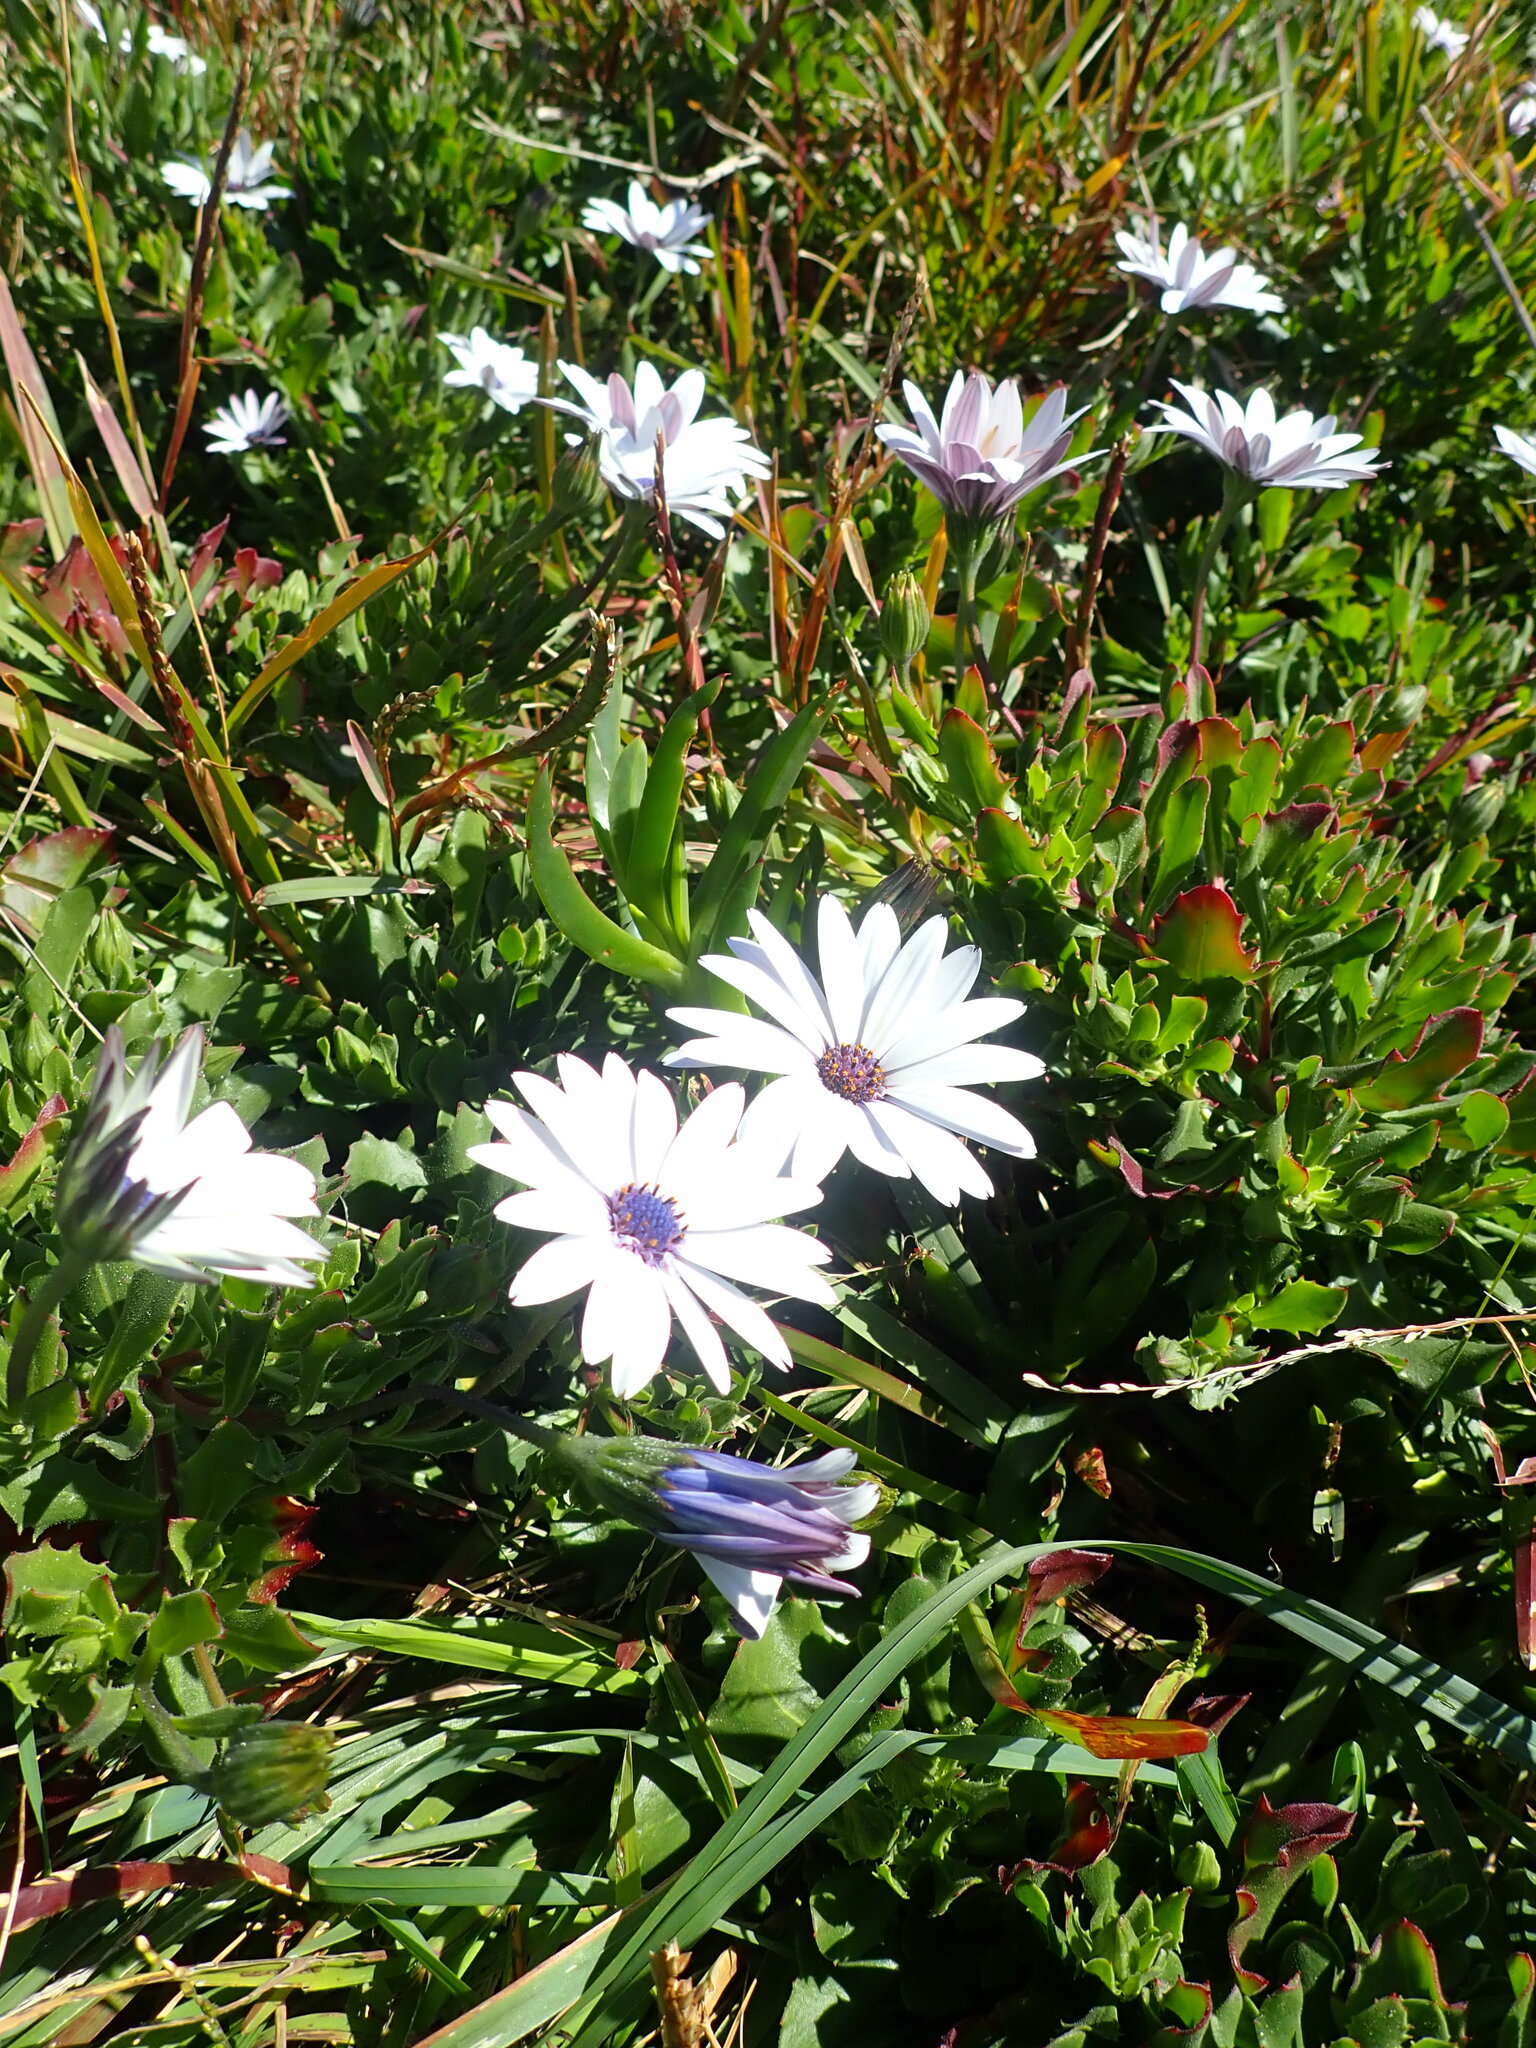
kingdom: Plantae
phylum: Tracheophyta
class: Magnoliopsida
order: Asterales
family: Asteraceae
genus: Dimorphotheca
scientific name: Dimorphotheca fruticosa
